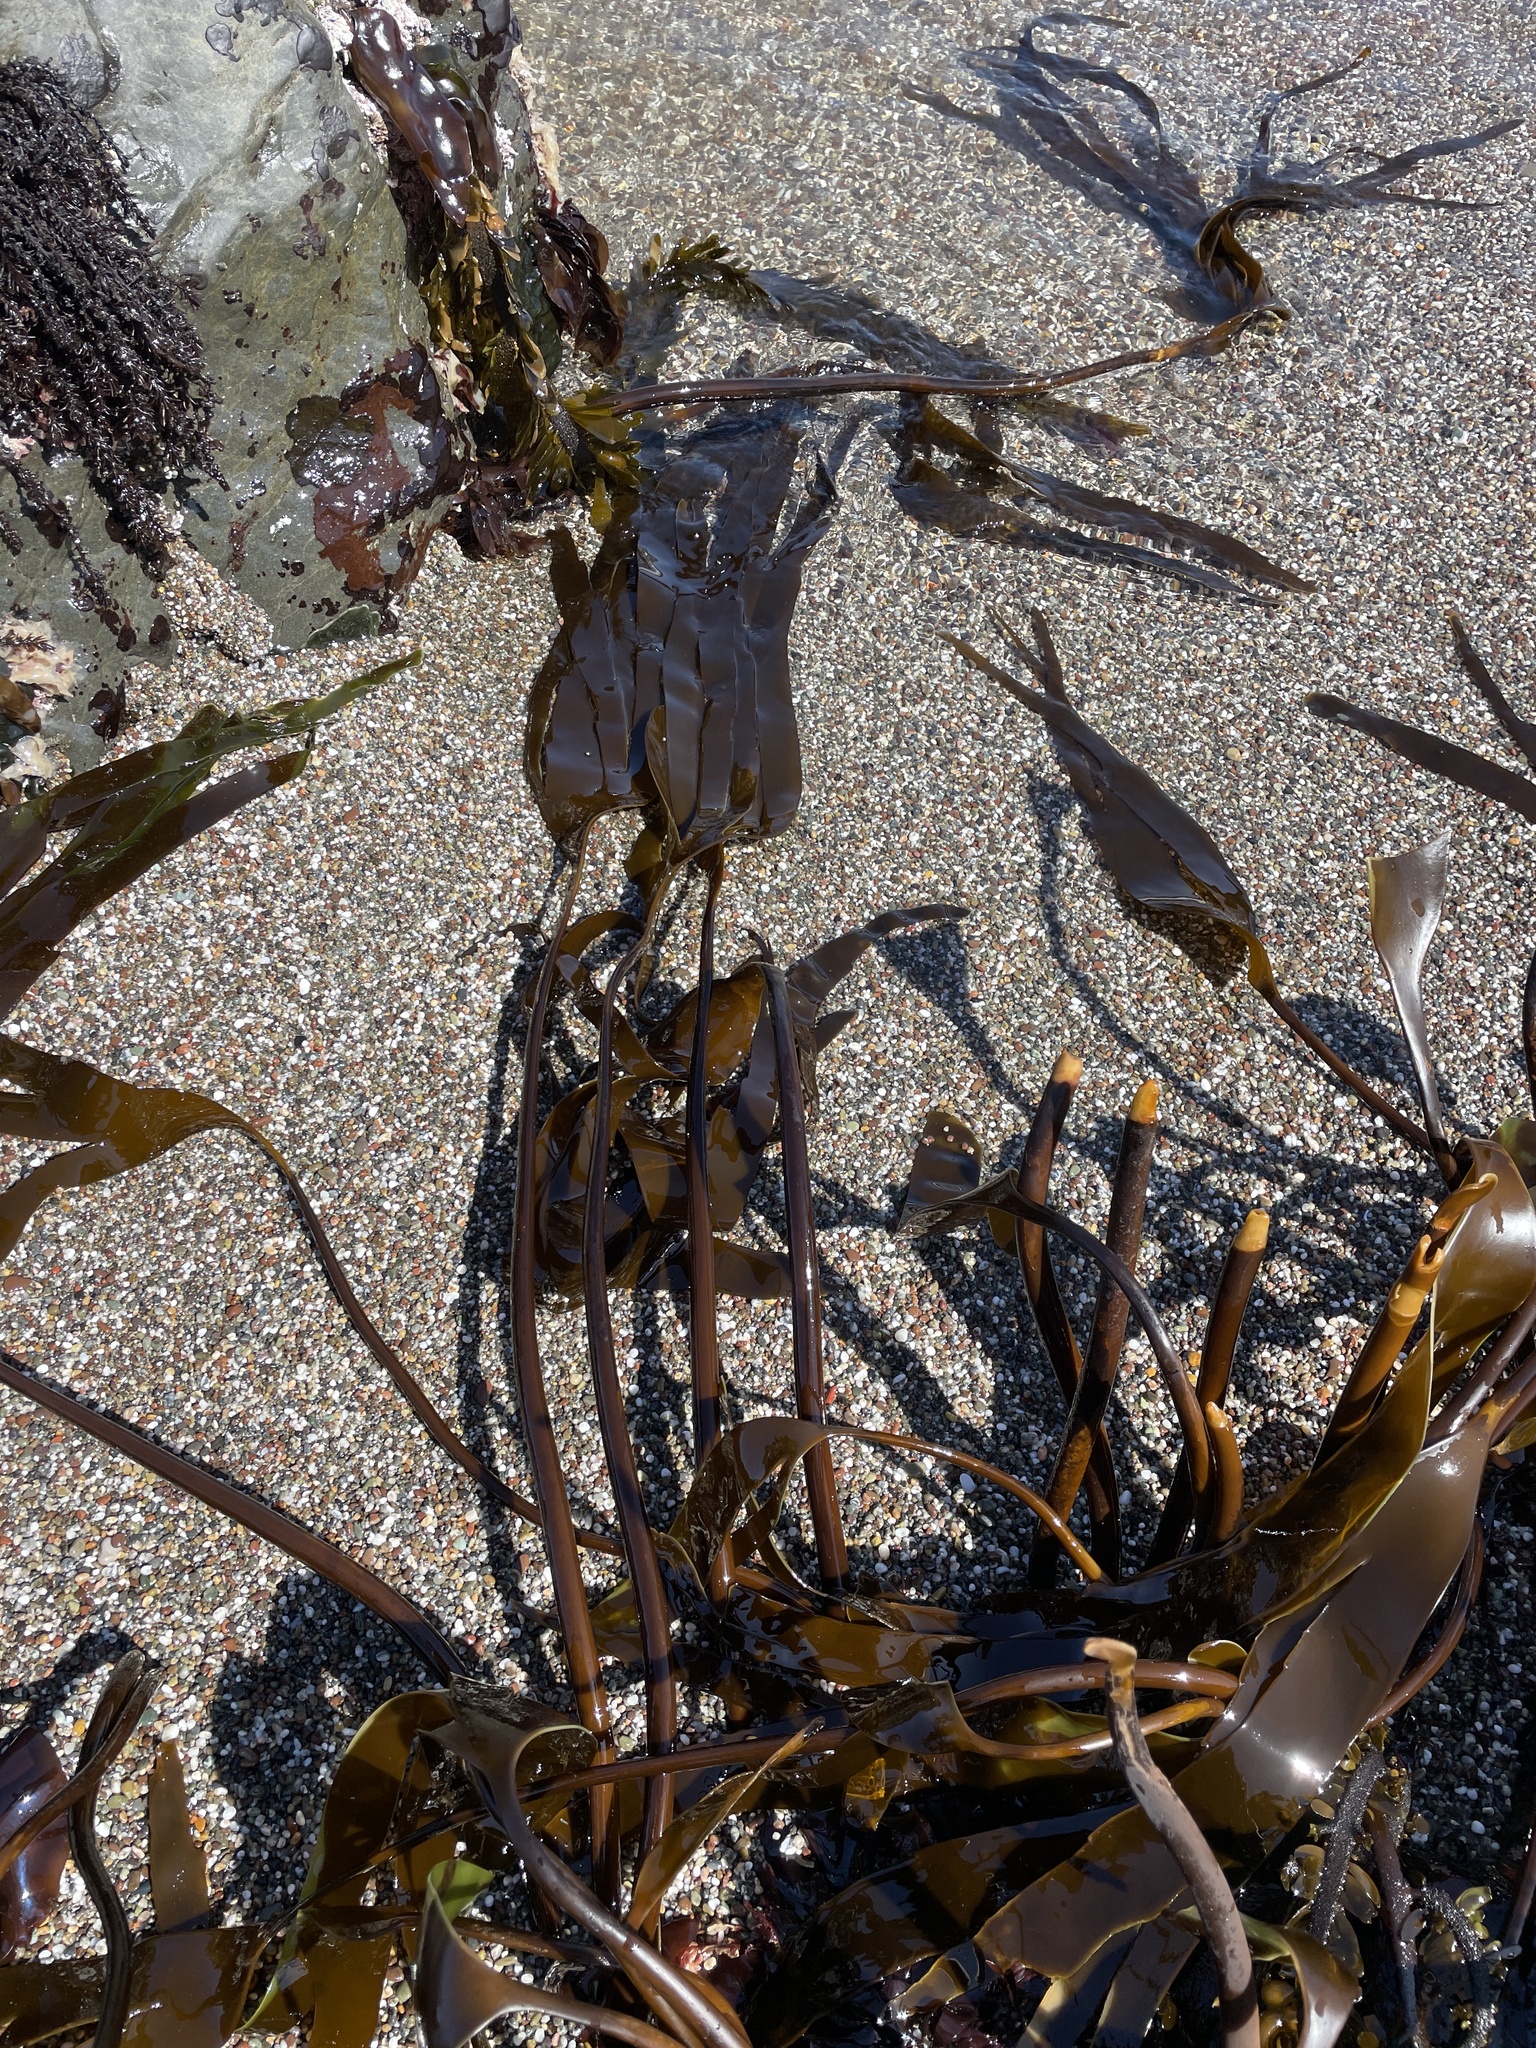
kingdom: Chromista
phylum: Ochrophyta
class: Phaeophyceae
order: Laminariales
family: Laminariaceae
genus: Laminaria
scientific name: Laminaria setchellii
